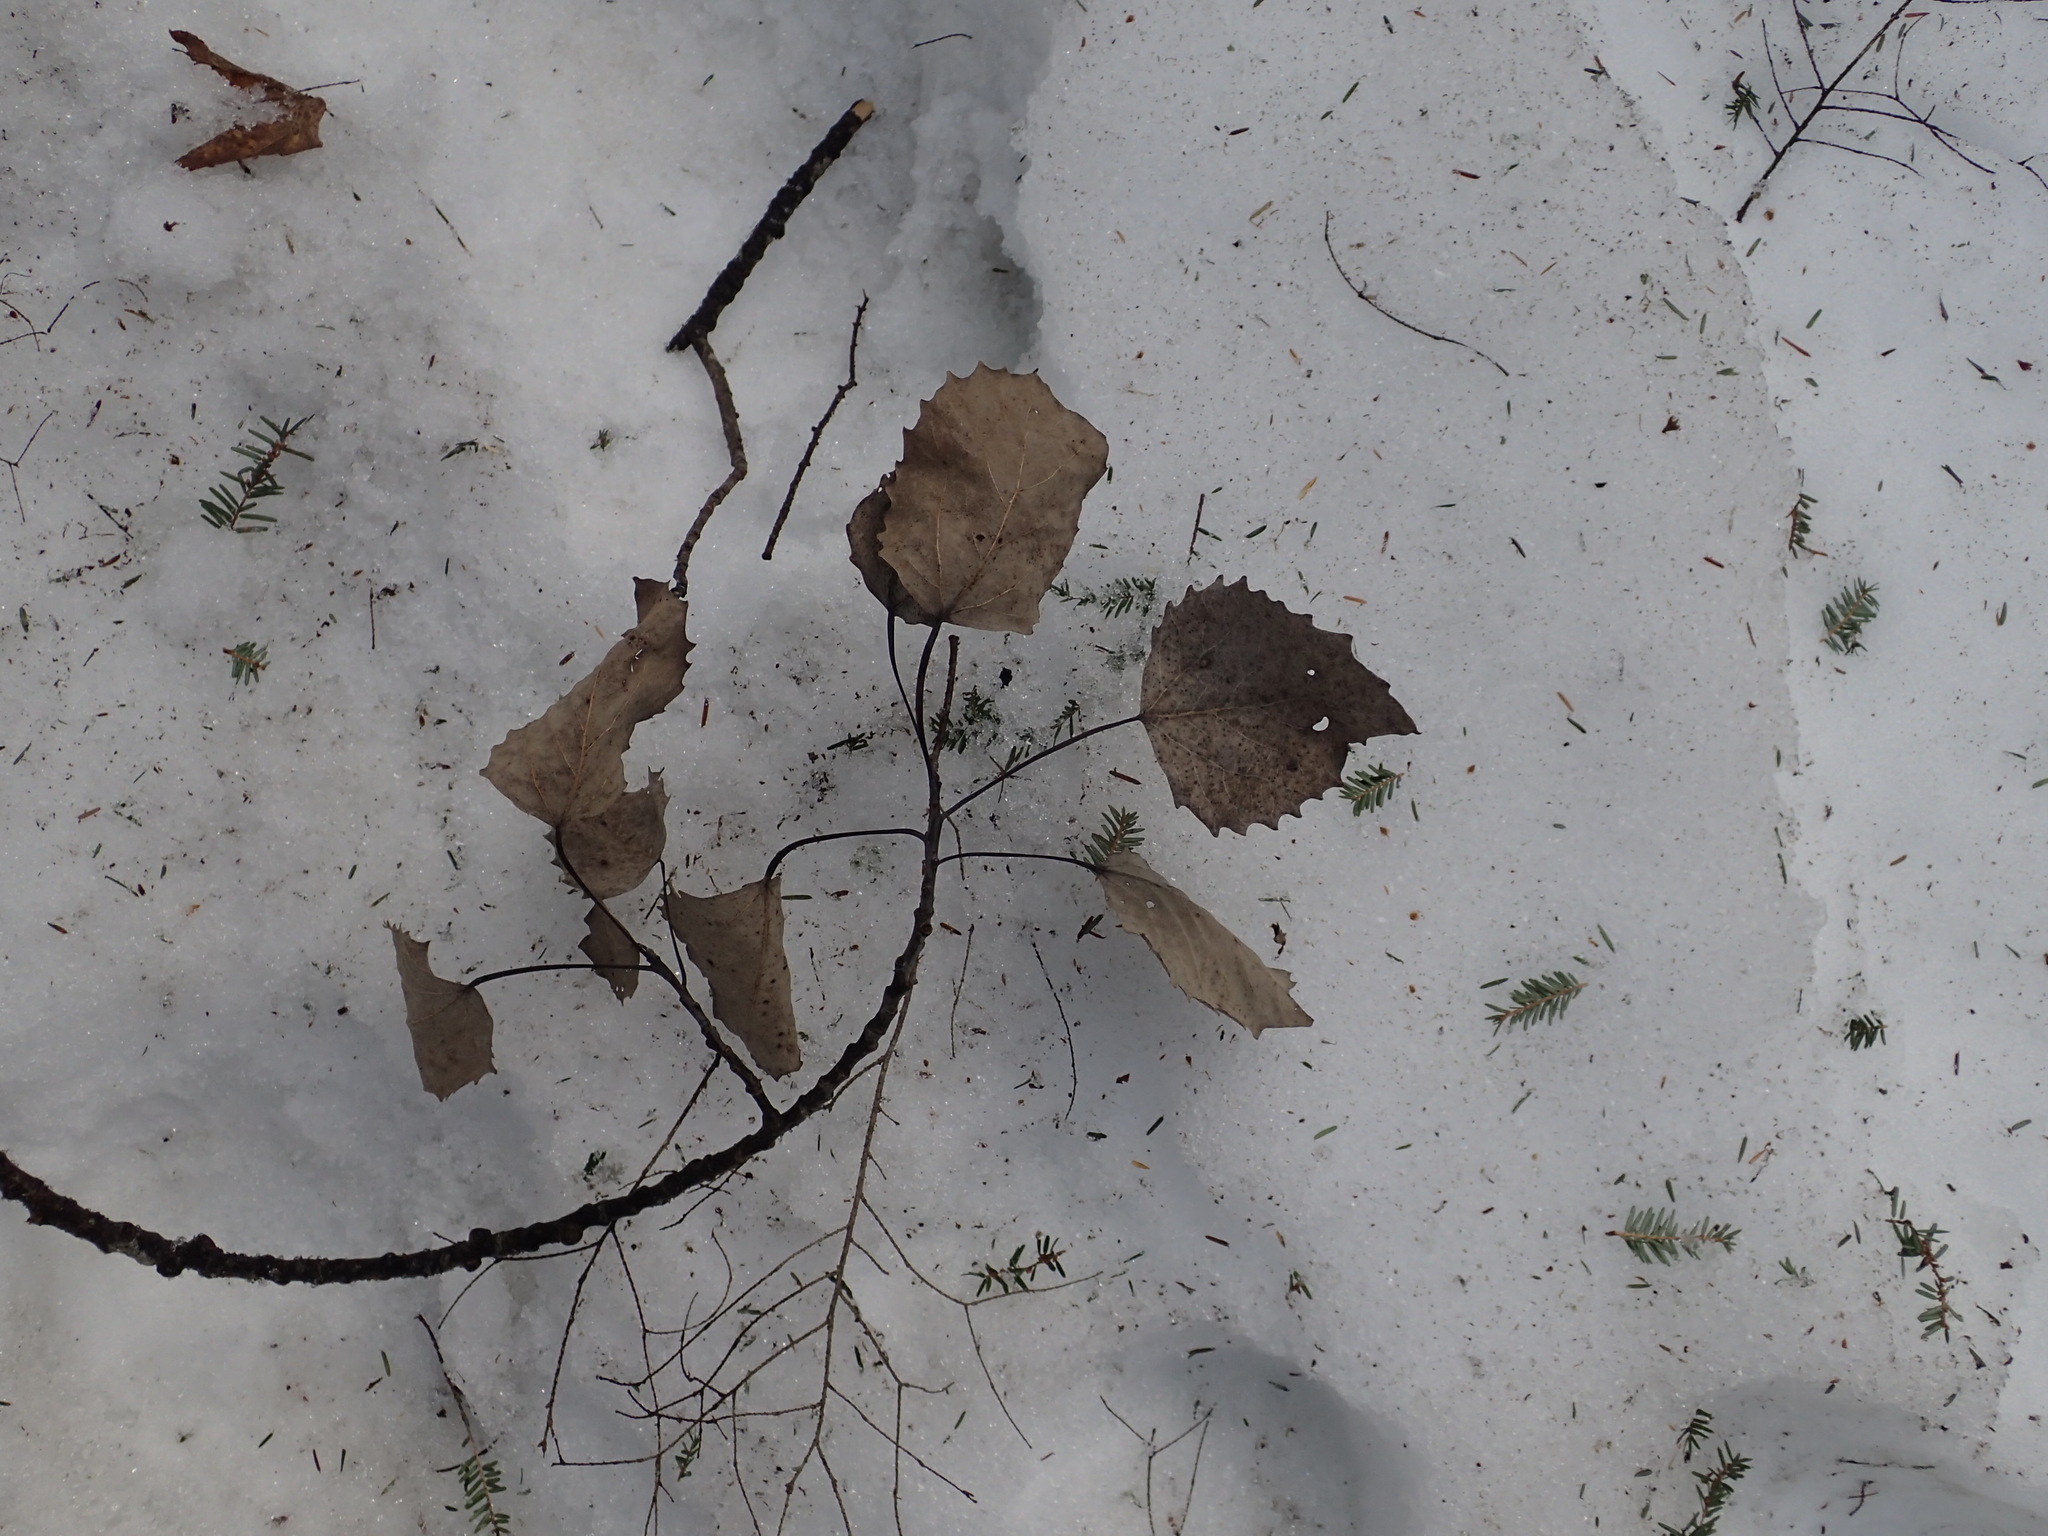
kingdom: Plantae
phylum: Tracheophyta
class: Magnoliopsida
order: Malpighiales
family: Salicaceae
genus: Populus
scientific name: Populus grandidentata
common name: Bigtooth aspen
